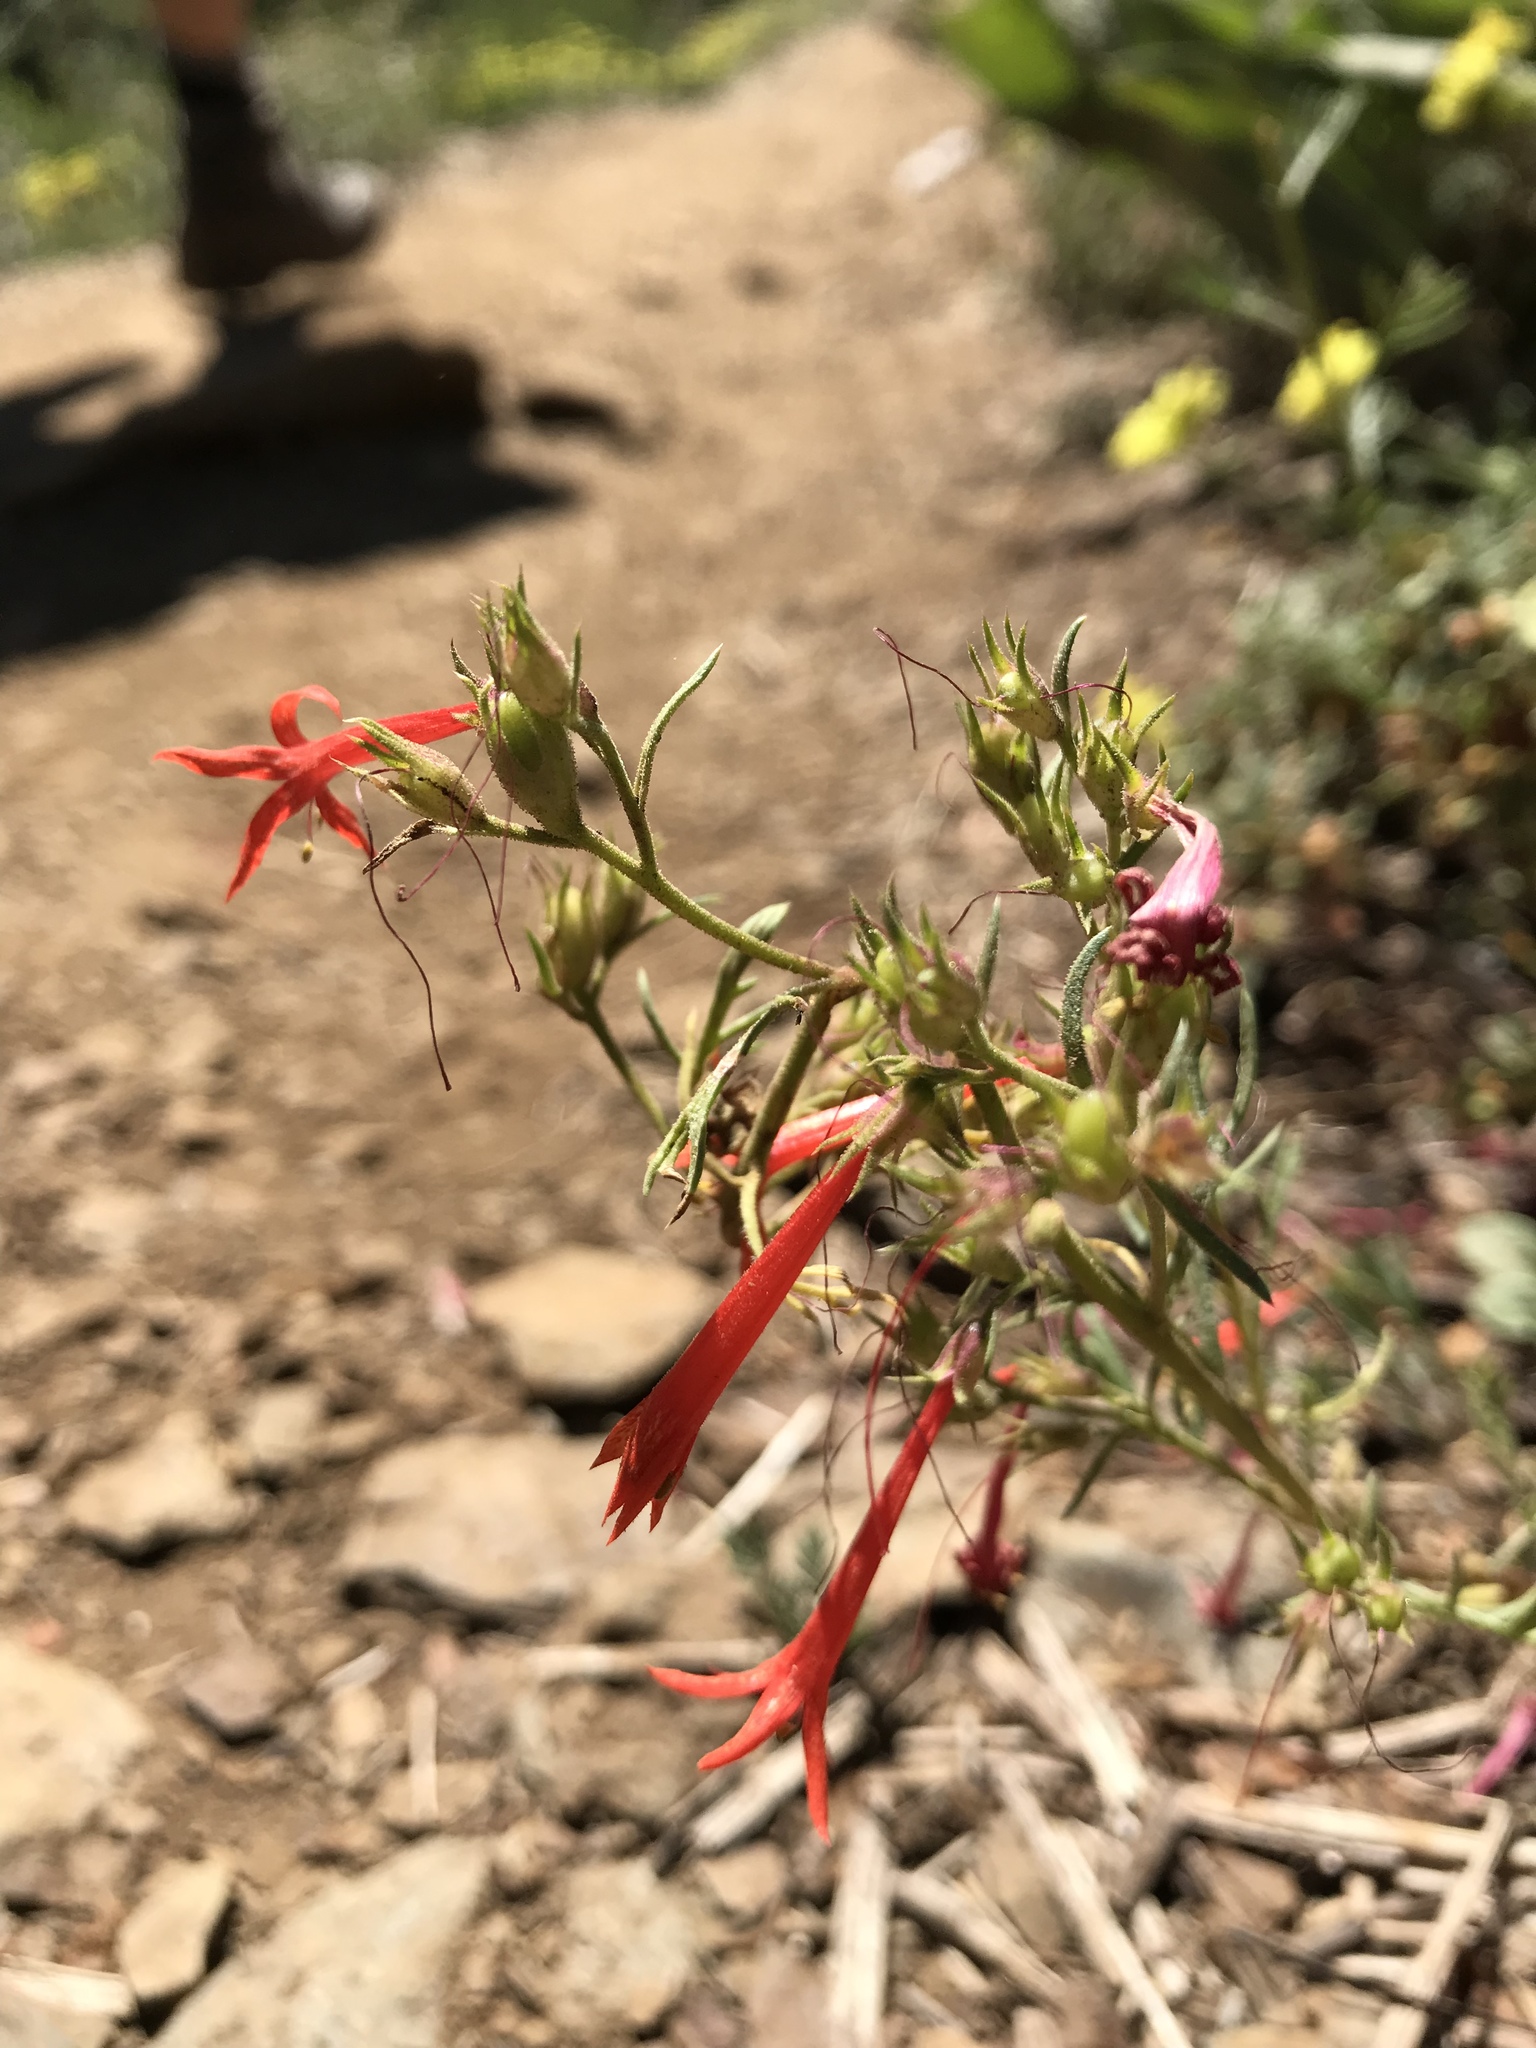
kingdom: Plantae
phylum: Tracheophyta
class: Magnoliopsida
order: Ericales
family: Polemoniaceae
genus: Ipomopsis
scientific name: Ipomopsis aggregata
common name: Scarlet gilia
